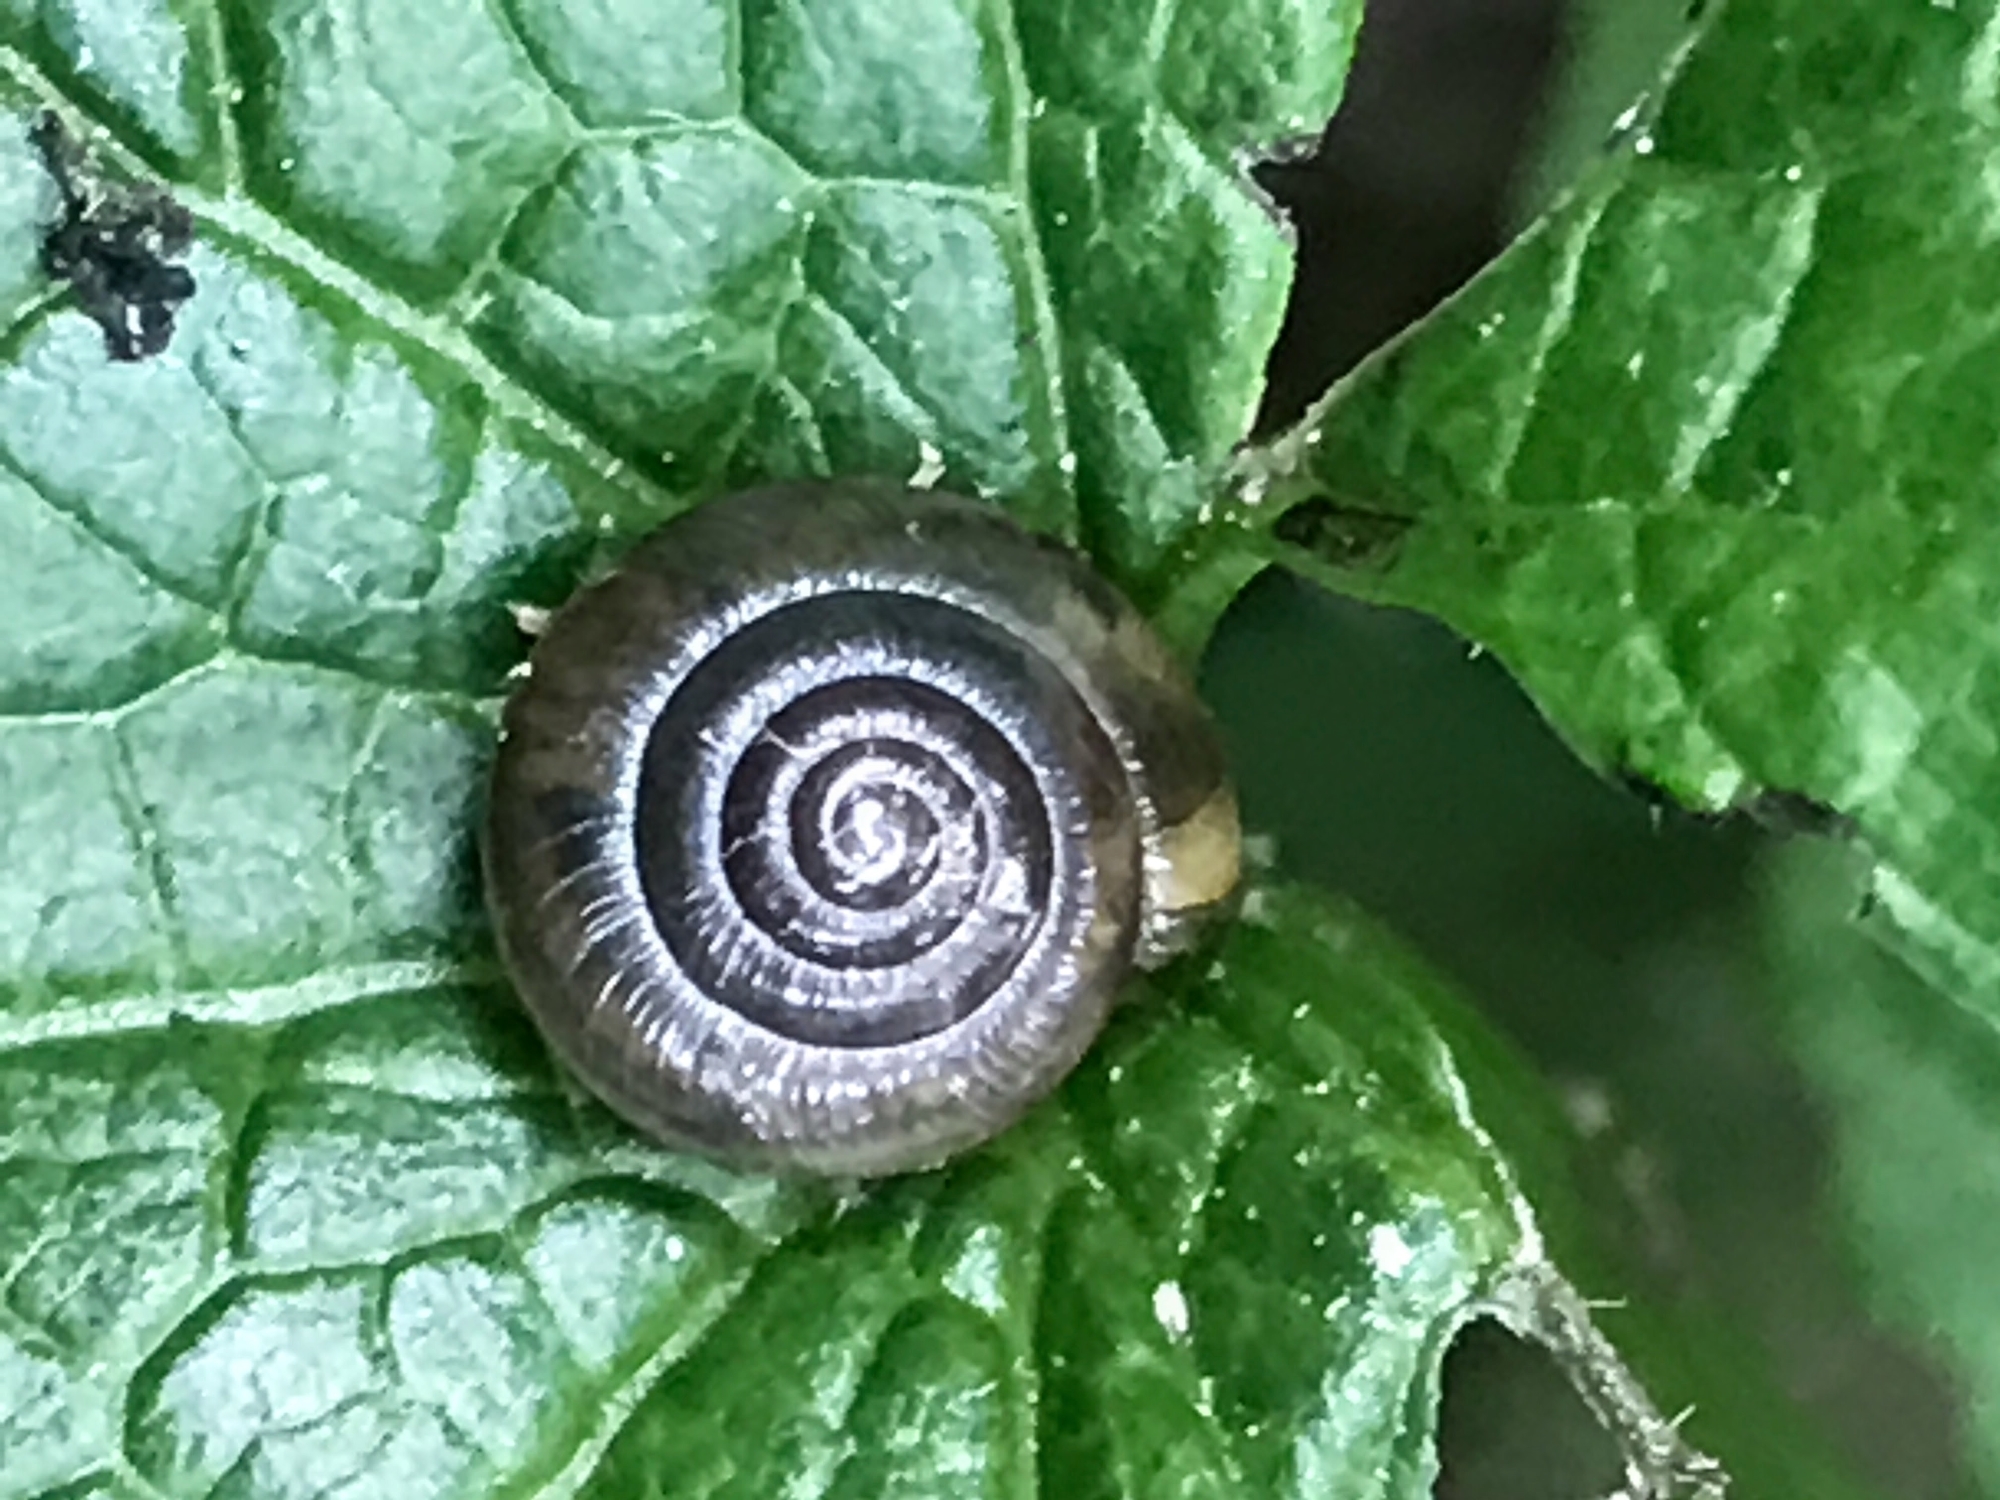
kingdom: Animalia
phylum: Mollusca
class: Gastropoda
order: Stylommatophora
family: Gastrodontidae
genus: Ventridens
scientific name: Ventridens ligera
